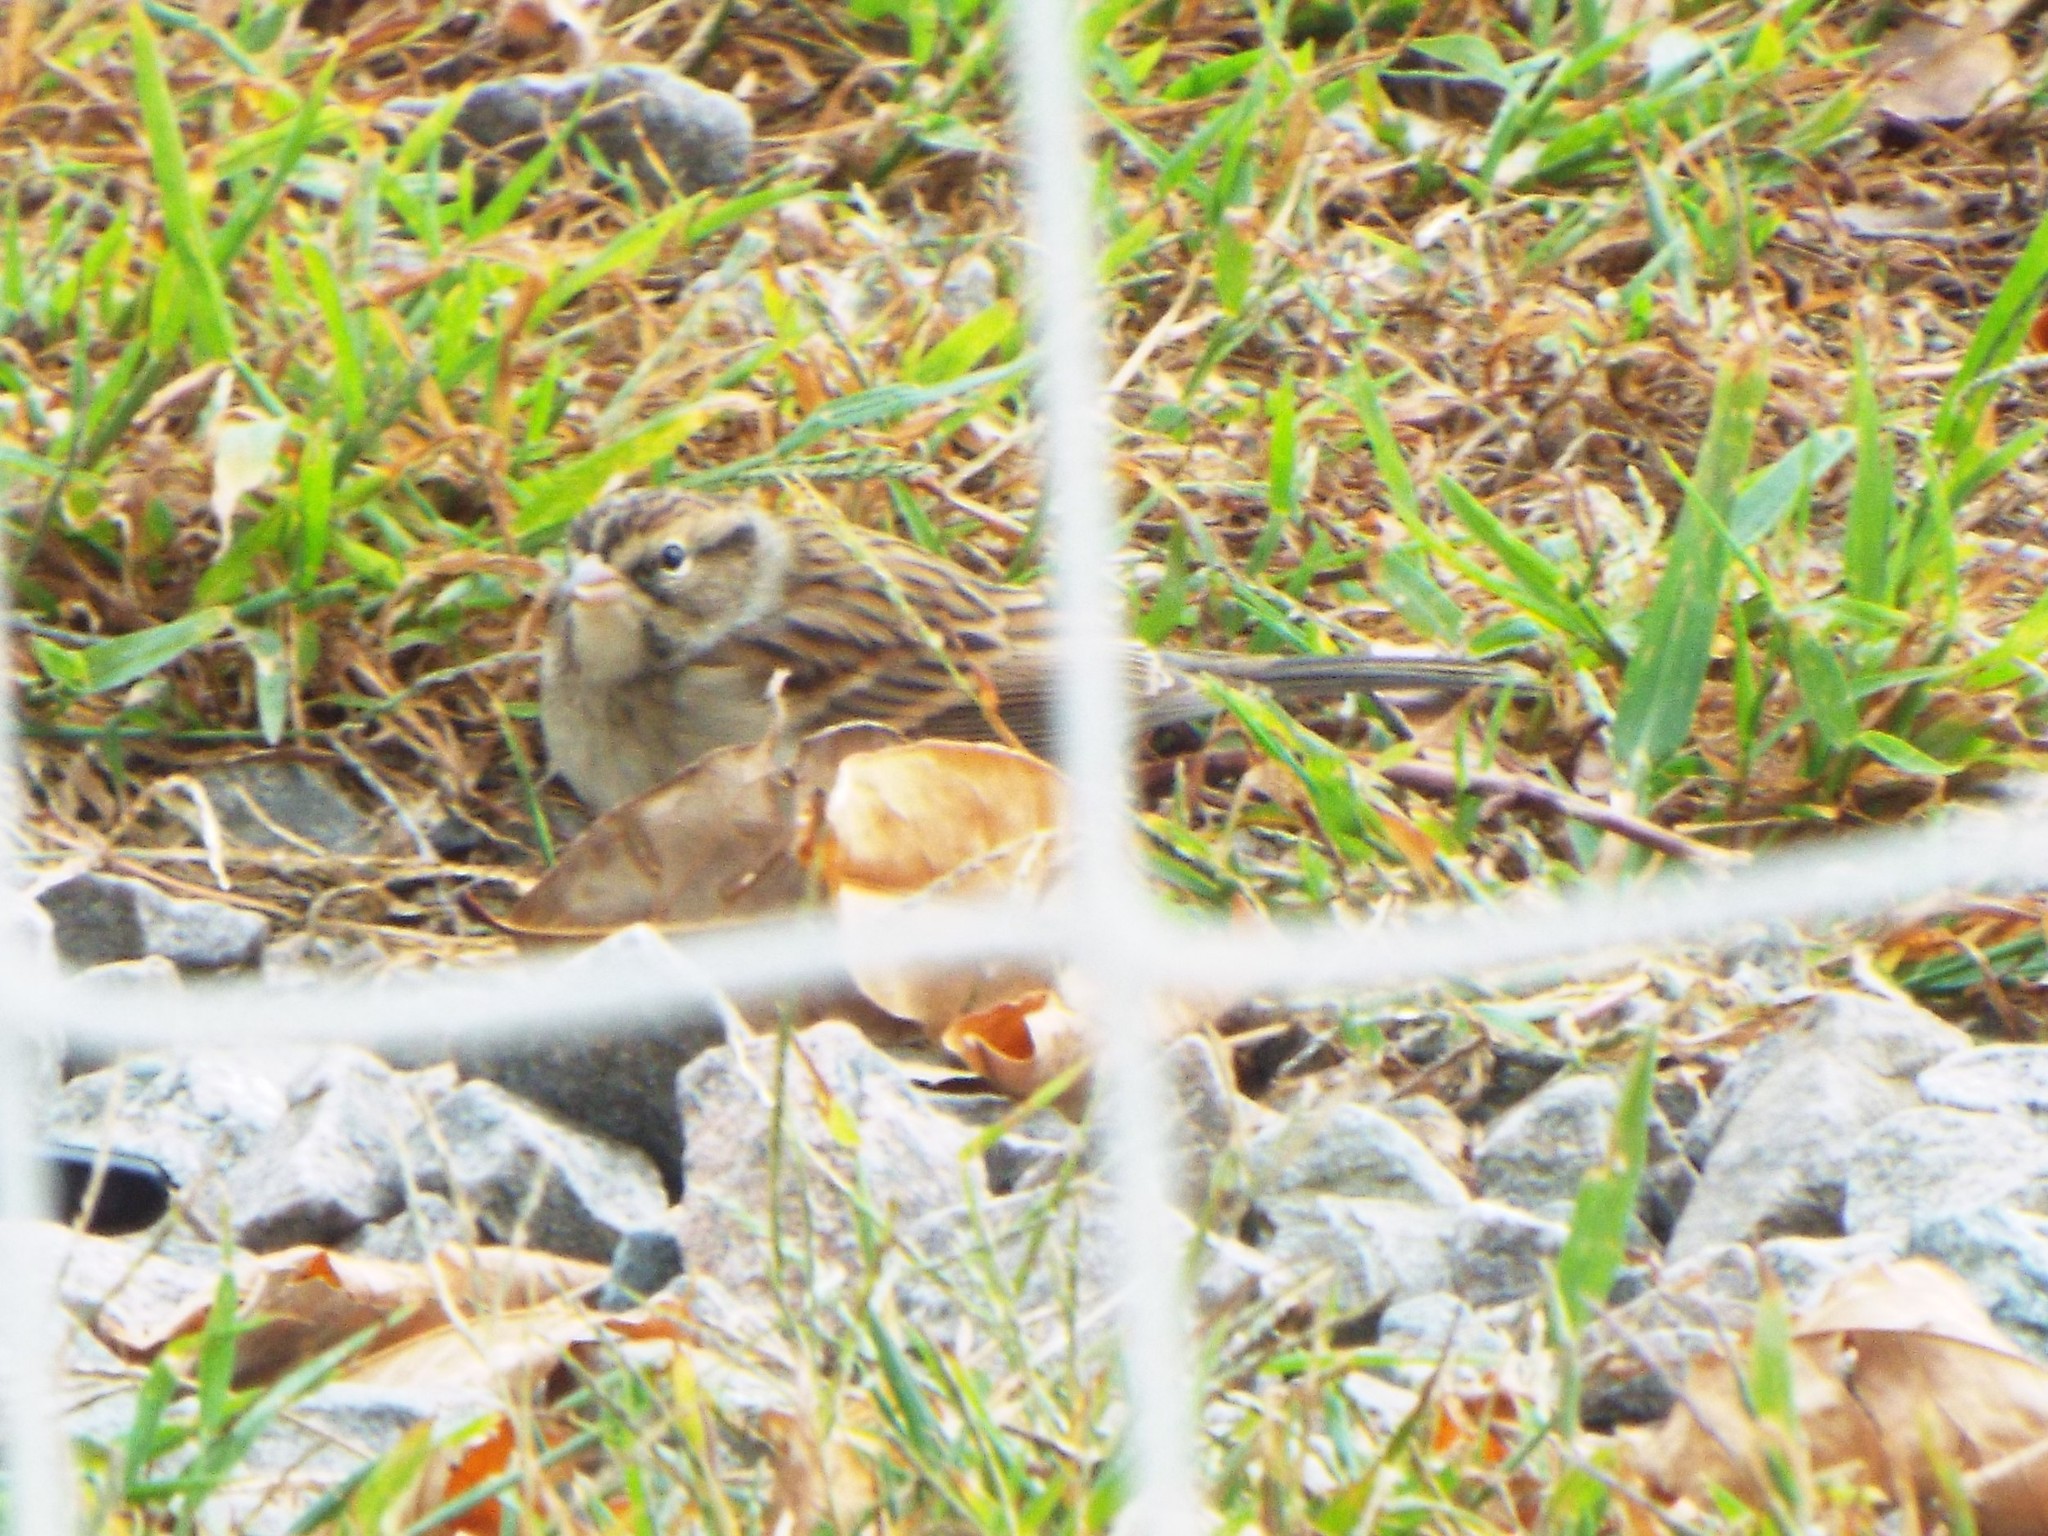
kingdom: Animalia
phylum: Chordata
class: Aves
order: Passeriformes
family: Passerellidae
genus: Spizella
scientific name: Spizella passerina
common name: Chipping sparrow
